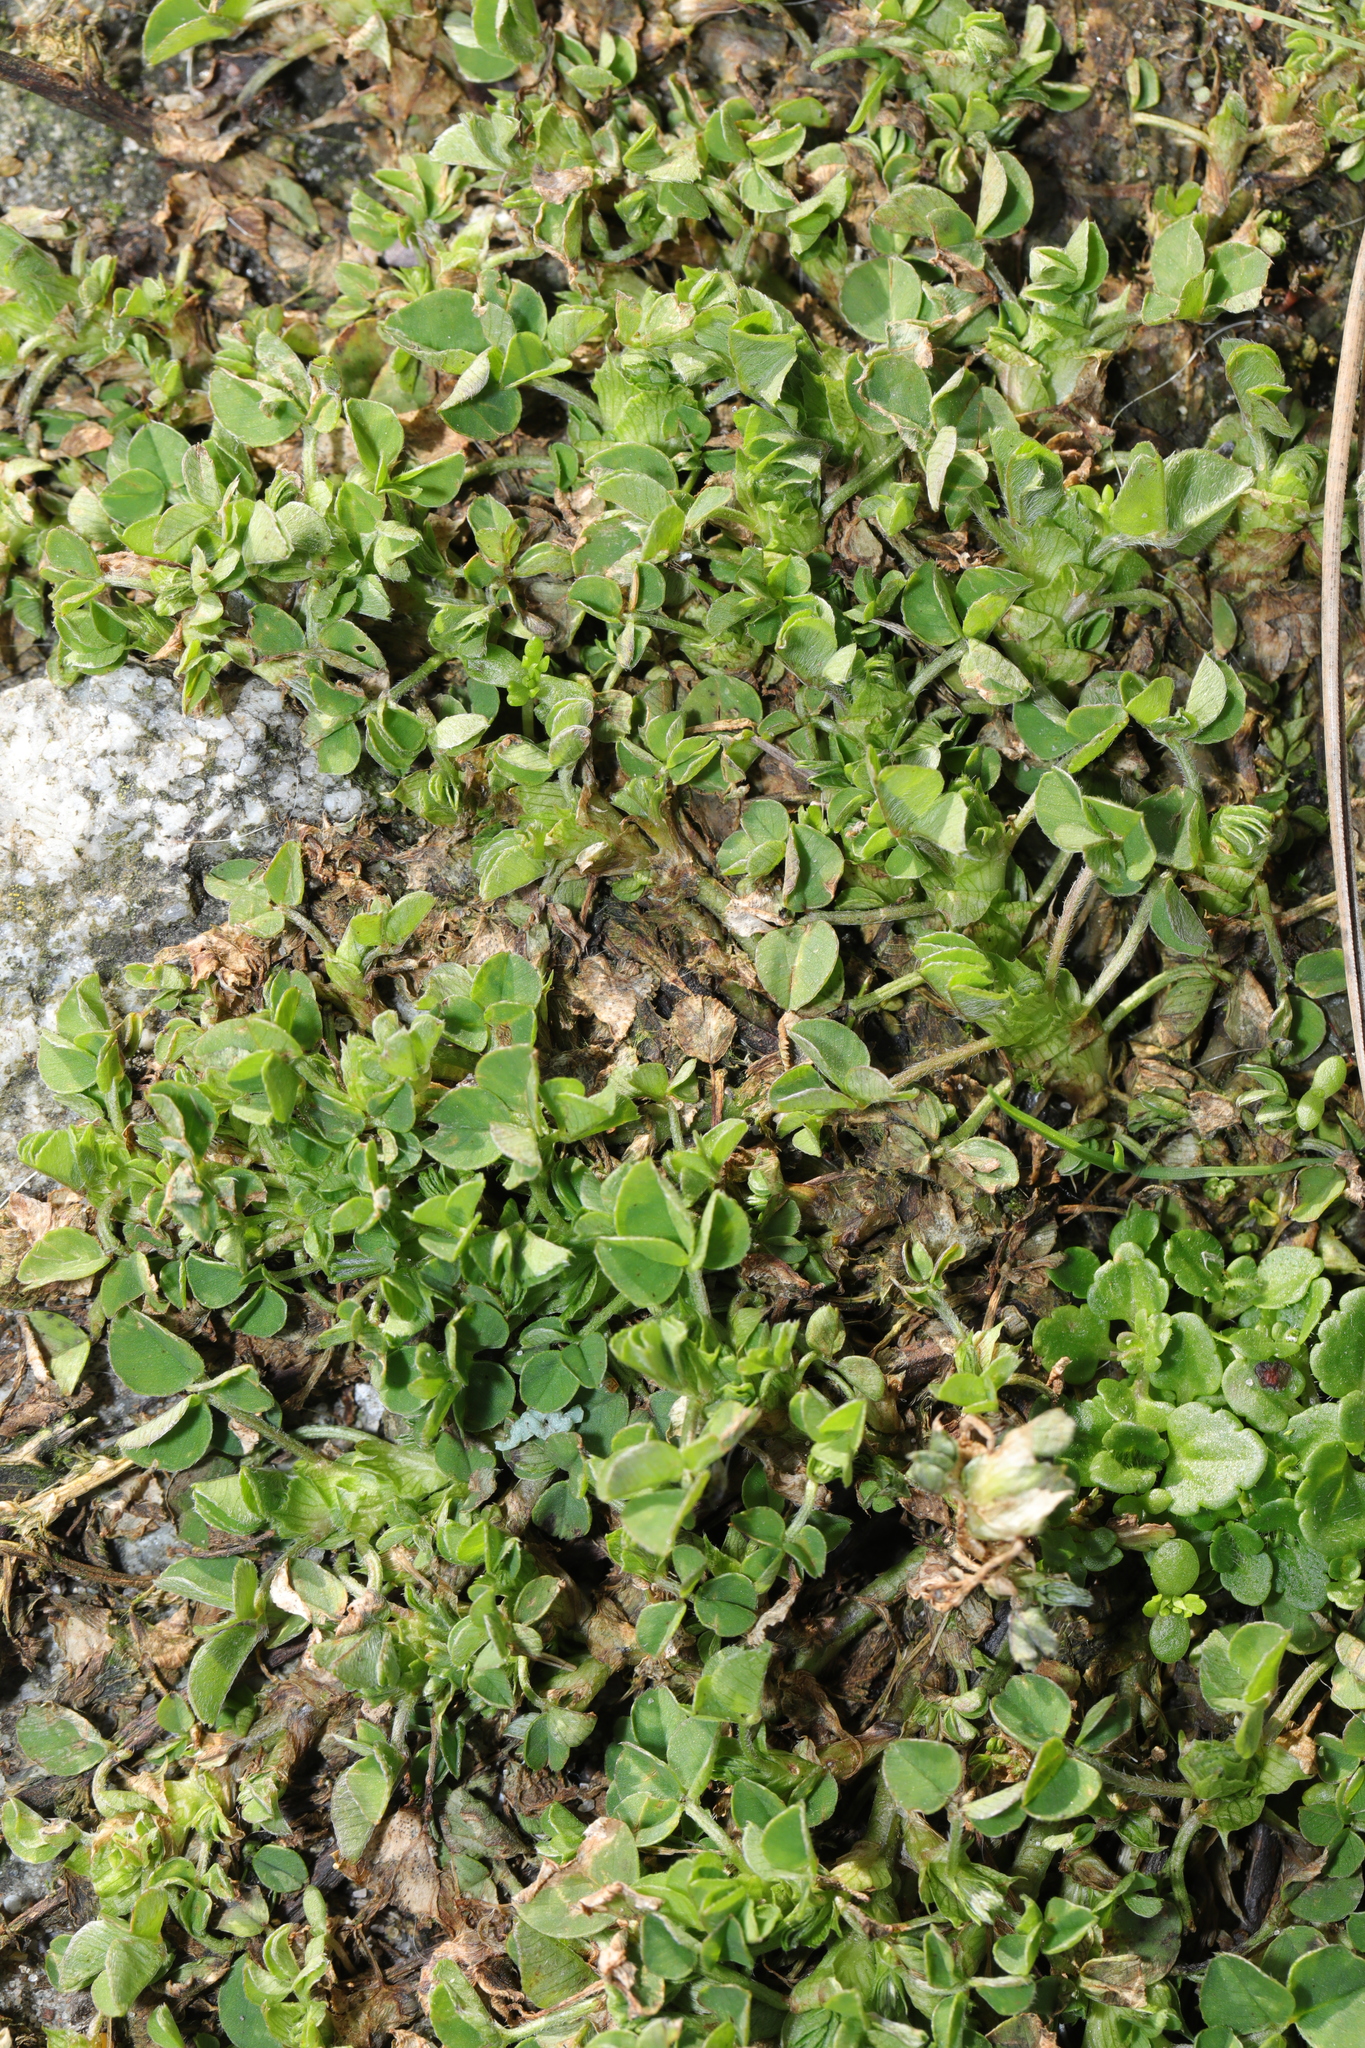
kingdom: Plantae
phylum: Tracheophyta
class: Magnoliopsida
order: Fabales
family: Fabaceae
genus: Medicago
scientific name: Medicago lupulina
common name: Black medick
